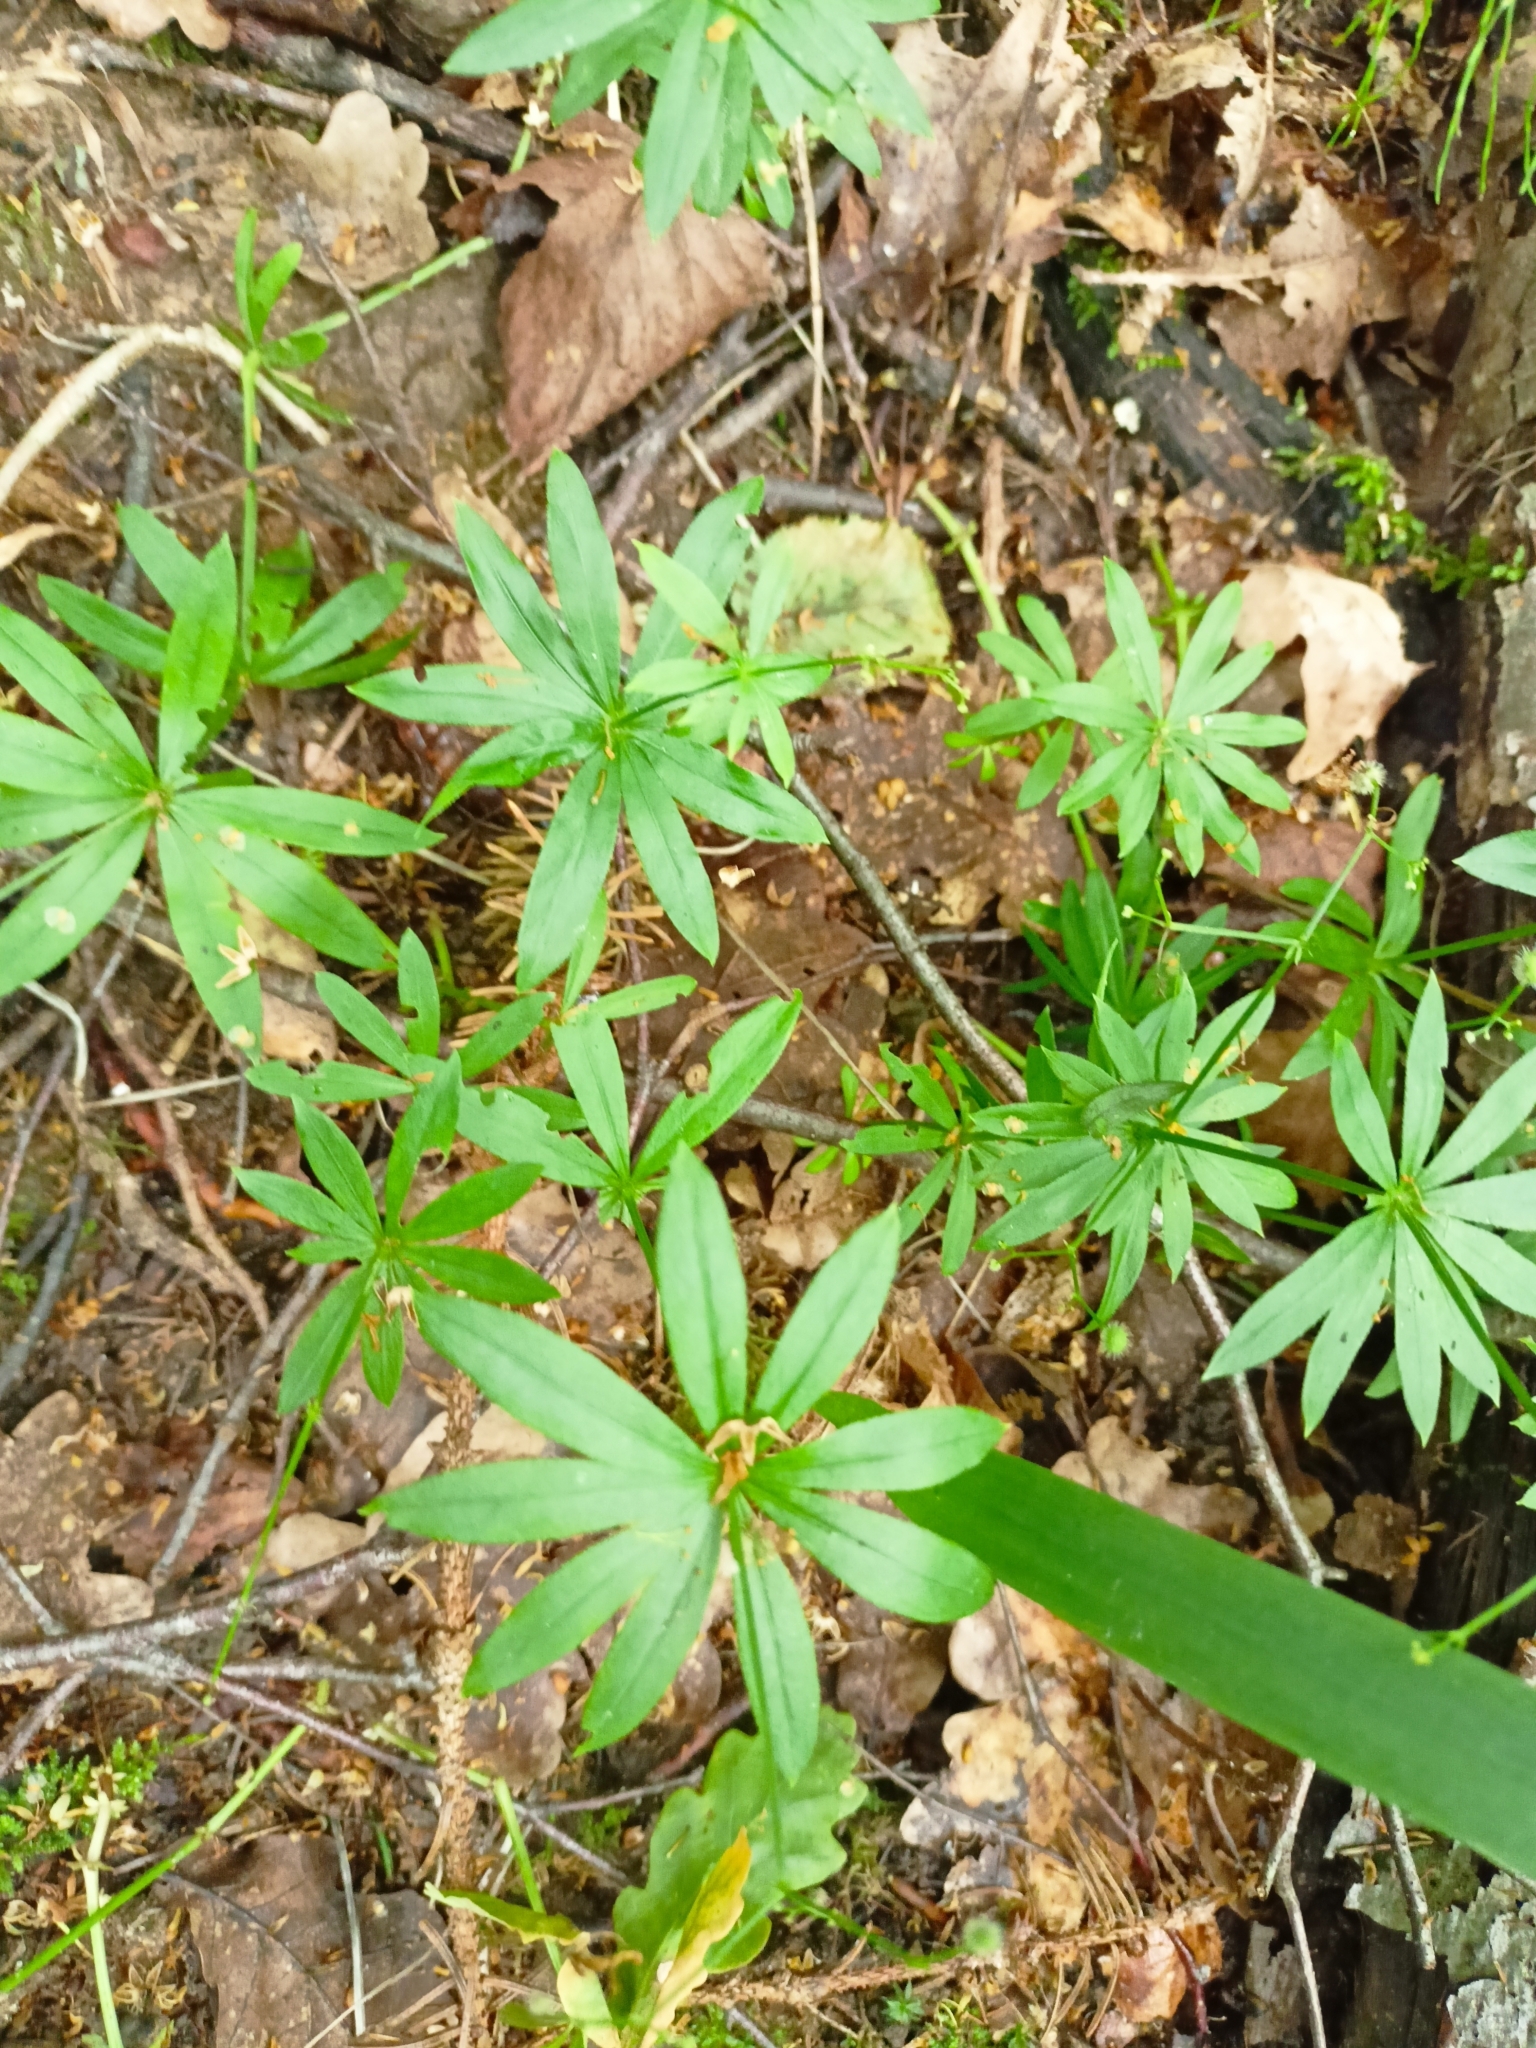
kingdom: Plantae
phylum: Tracheophyta
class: Magnoliopsida
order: Gentianales
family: Rubiaceae
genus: Galium
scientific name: Galium odoratum
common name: Sweet woodruff
